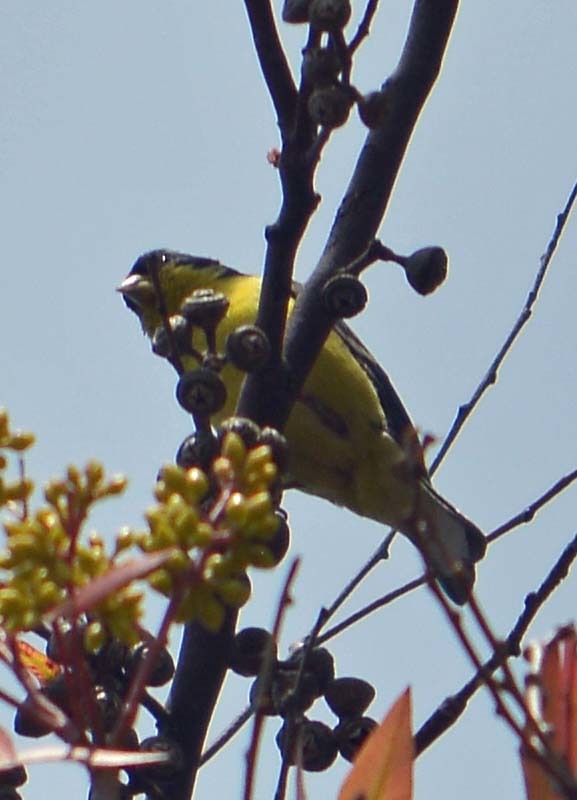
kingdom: Animalia
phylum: Chordata
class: Aves
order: Passeriformes
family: Fringillidae
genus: Spinus
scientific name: Spinus psaltria
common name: Lesser goldfinch
